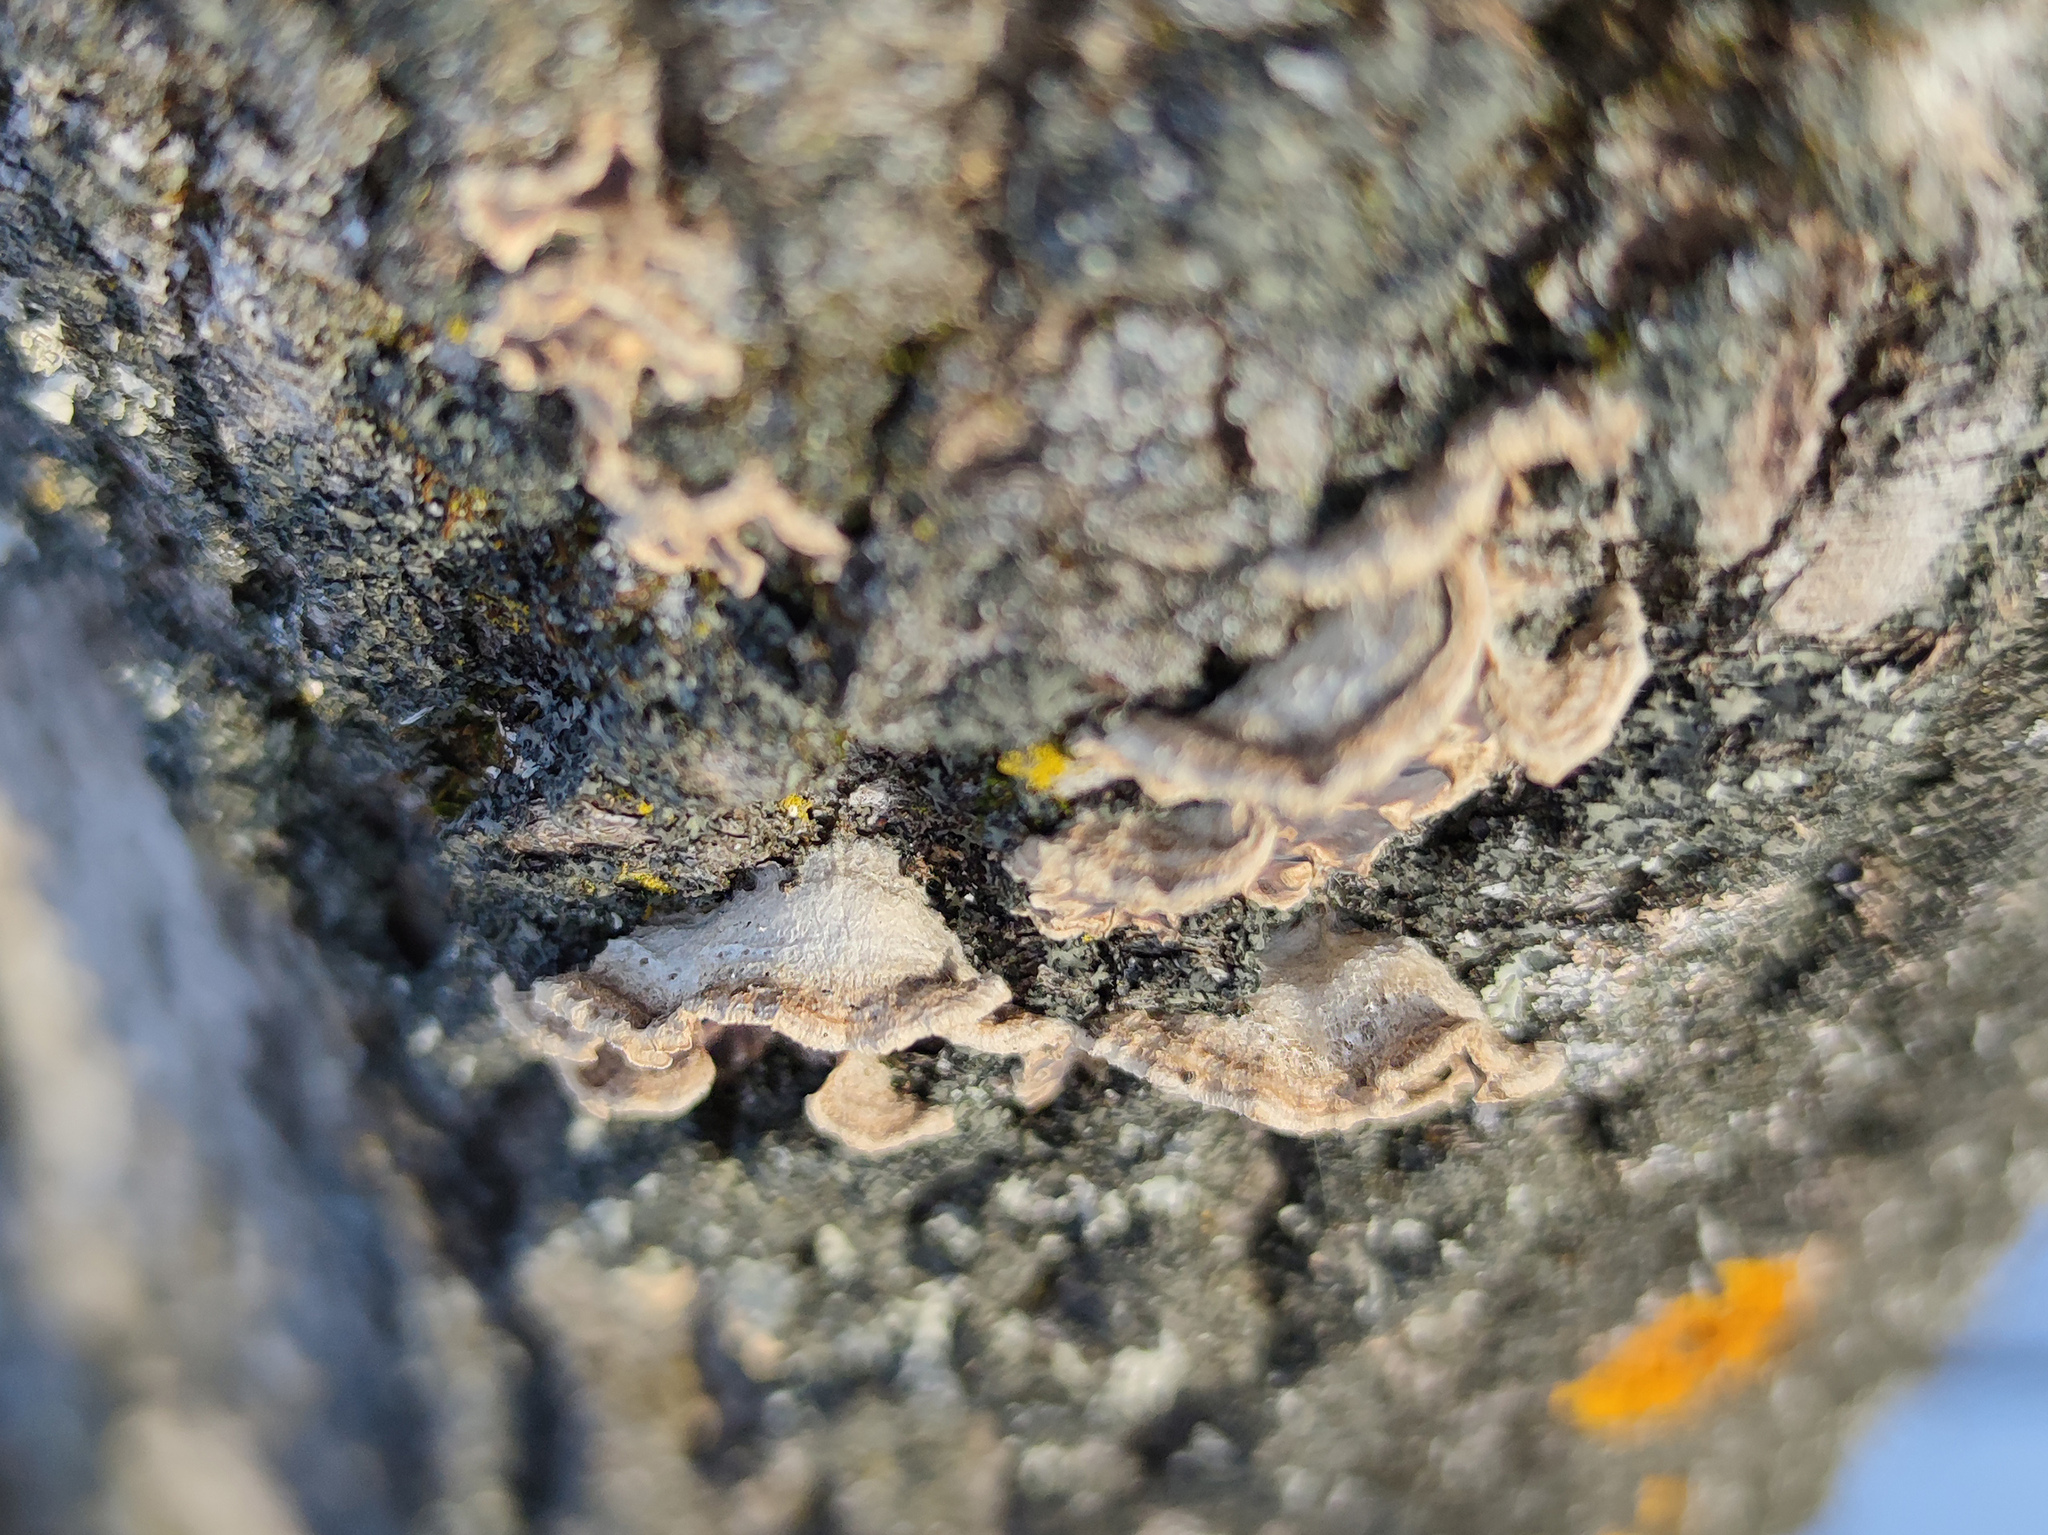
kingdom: Fungi
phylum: Basidiomycota
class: Agaricomycetes
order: Agaricales
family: Cyphellaceae
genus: Chondrostereum
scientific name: Chondrostereum purpureum
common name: Silver leaf disease
